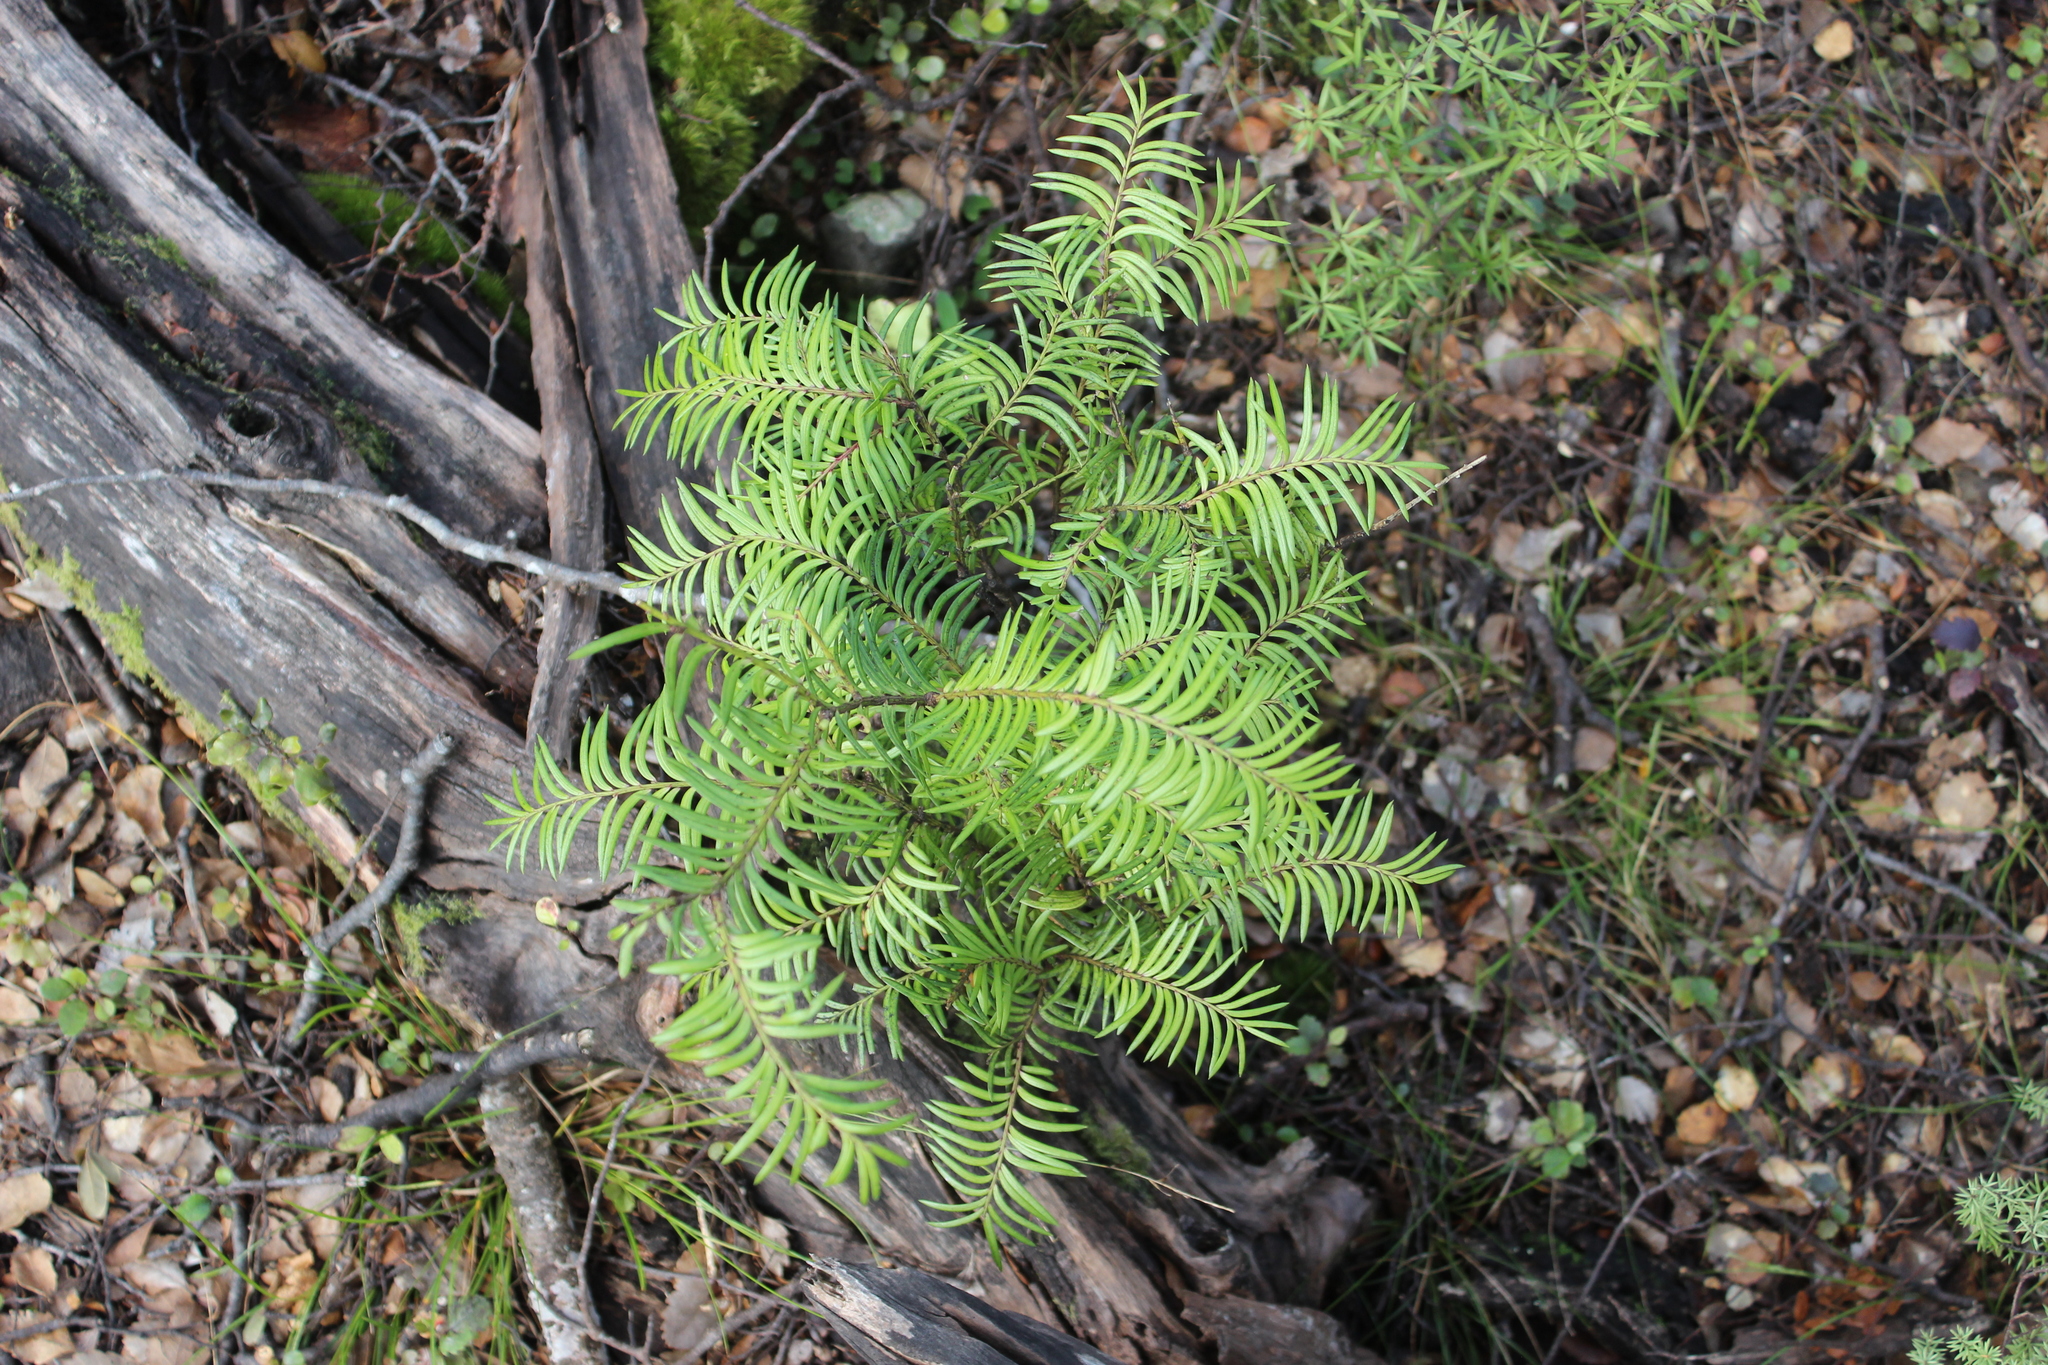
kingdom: Plantae
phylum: Tracheophyta
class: Pinopsida
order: Pinales
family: Podocarpaceae
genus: Prumnopitys
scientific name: Prumnopitys ferruginea
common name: Brown pine
